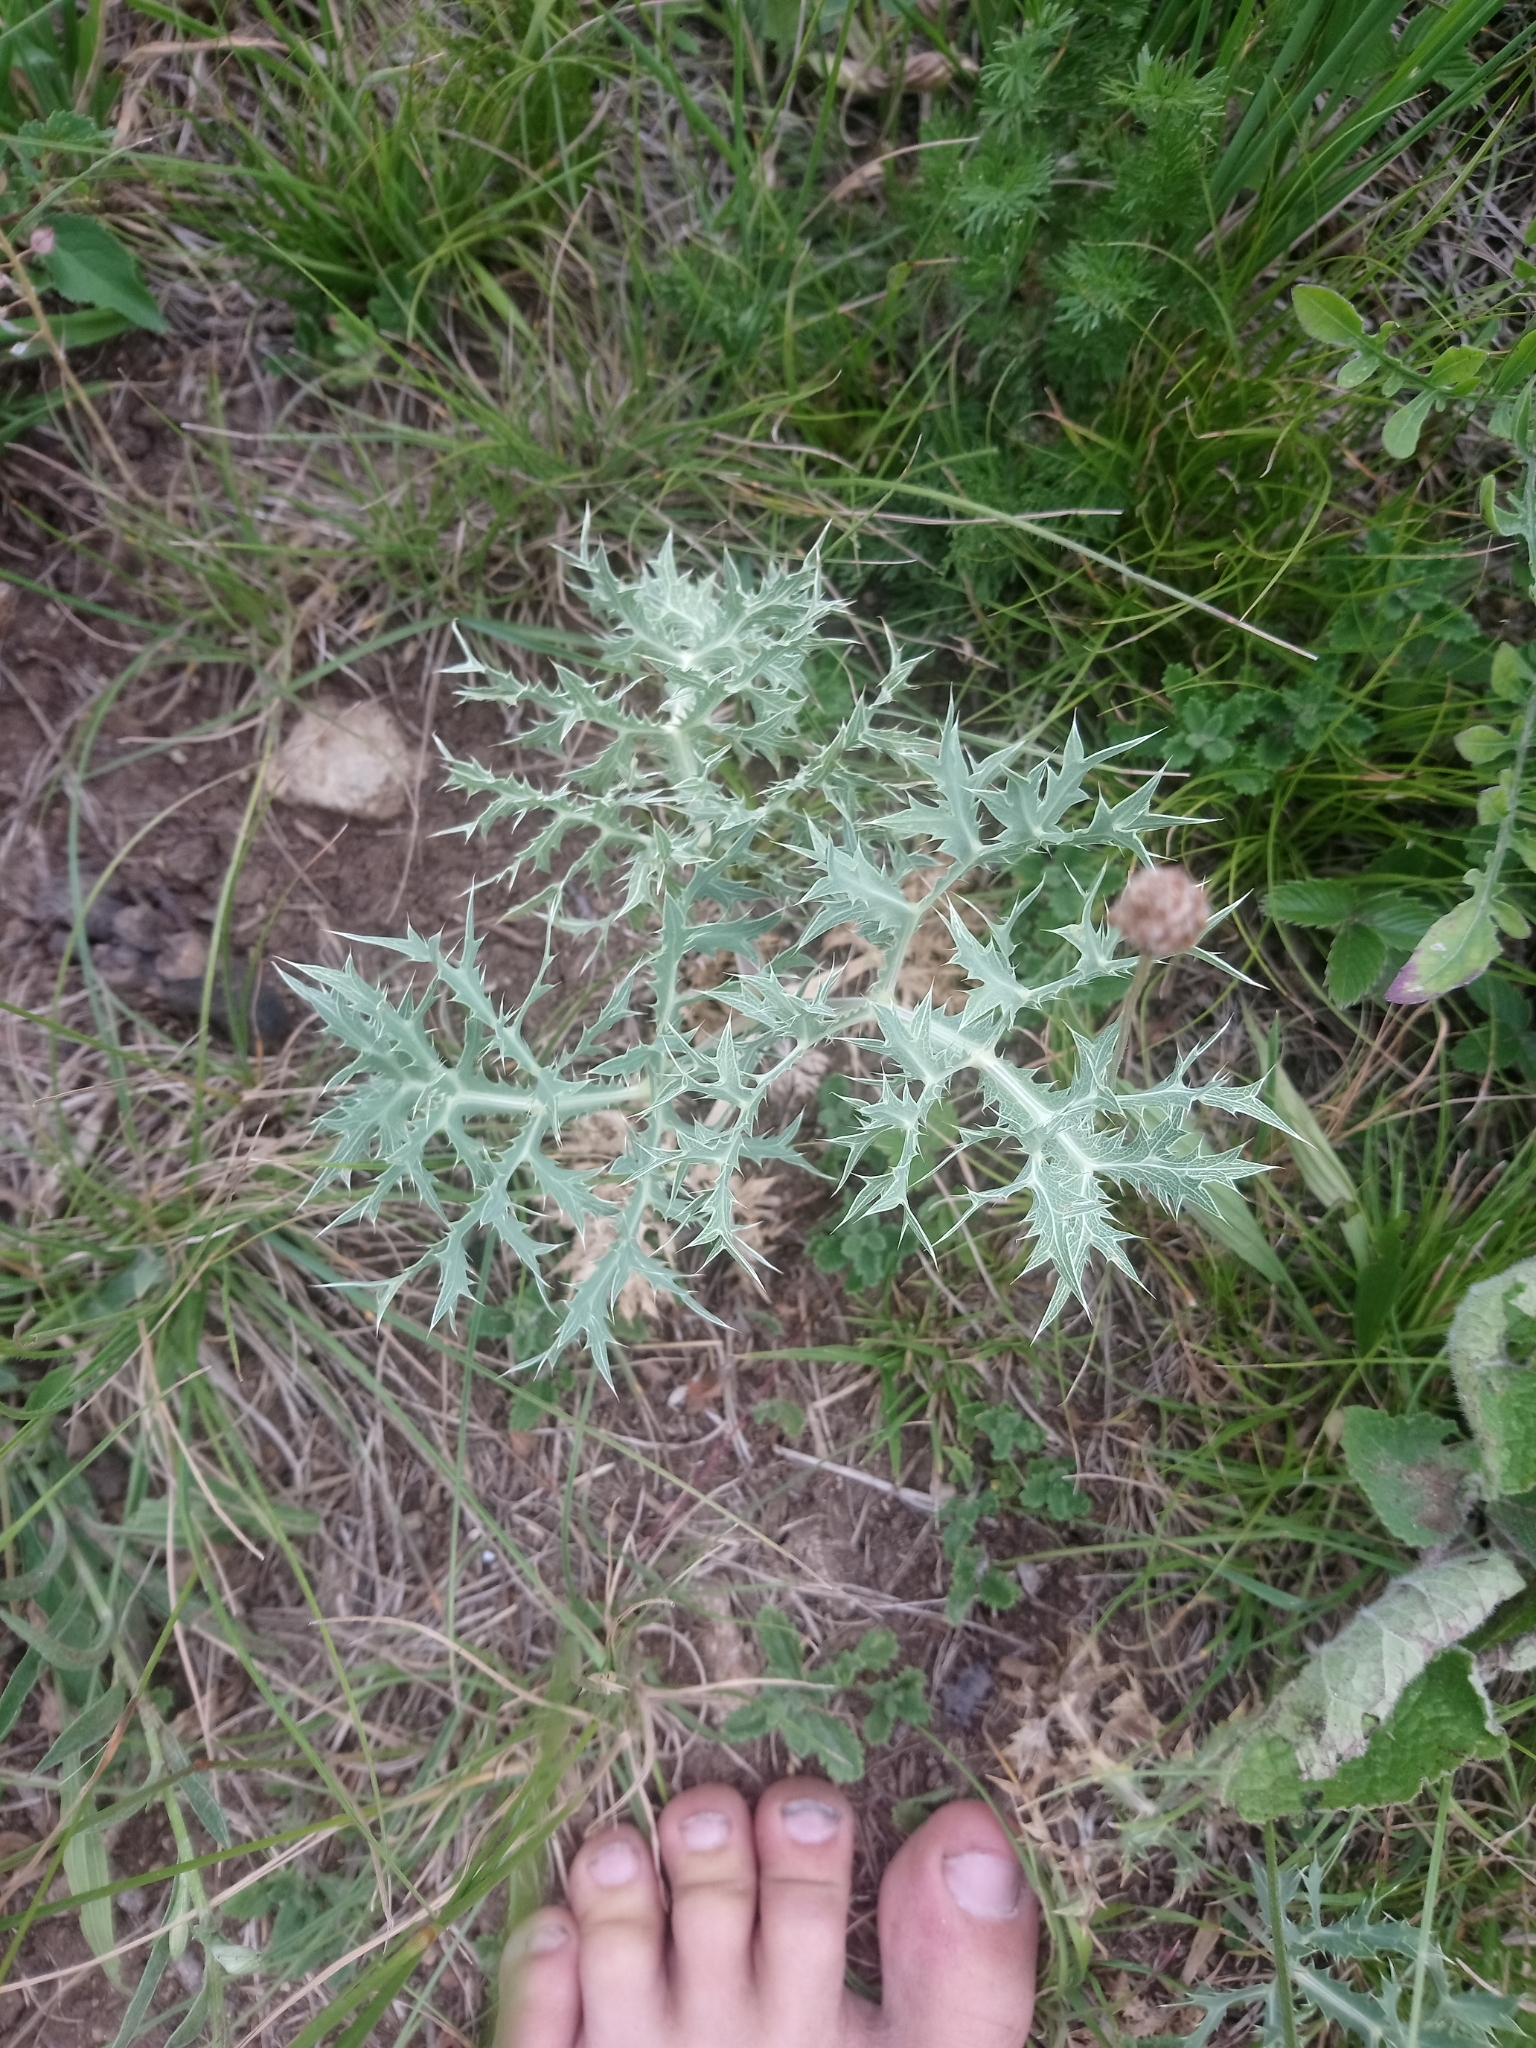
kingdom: Plantae
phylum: Tracheophyta
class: Magnoliopsida
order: Apiales
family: Apiaceae
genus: Eryngium
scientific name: Eryngium campestre
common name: Field eryngo
